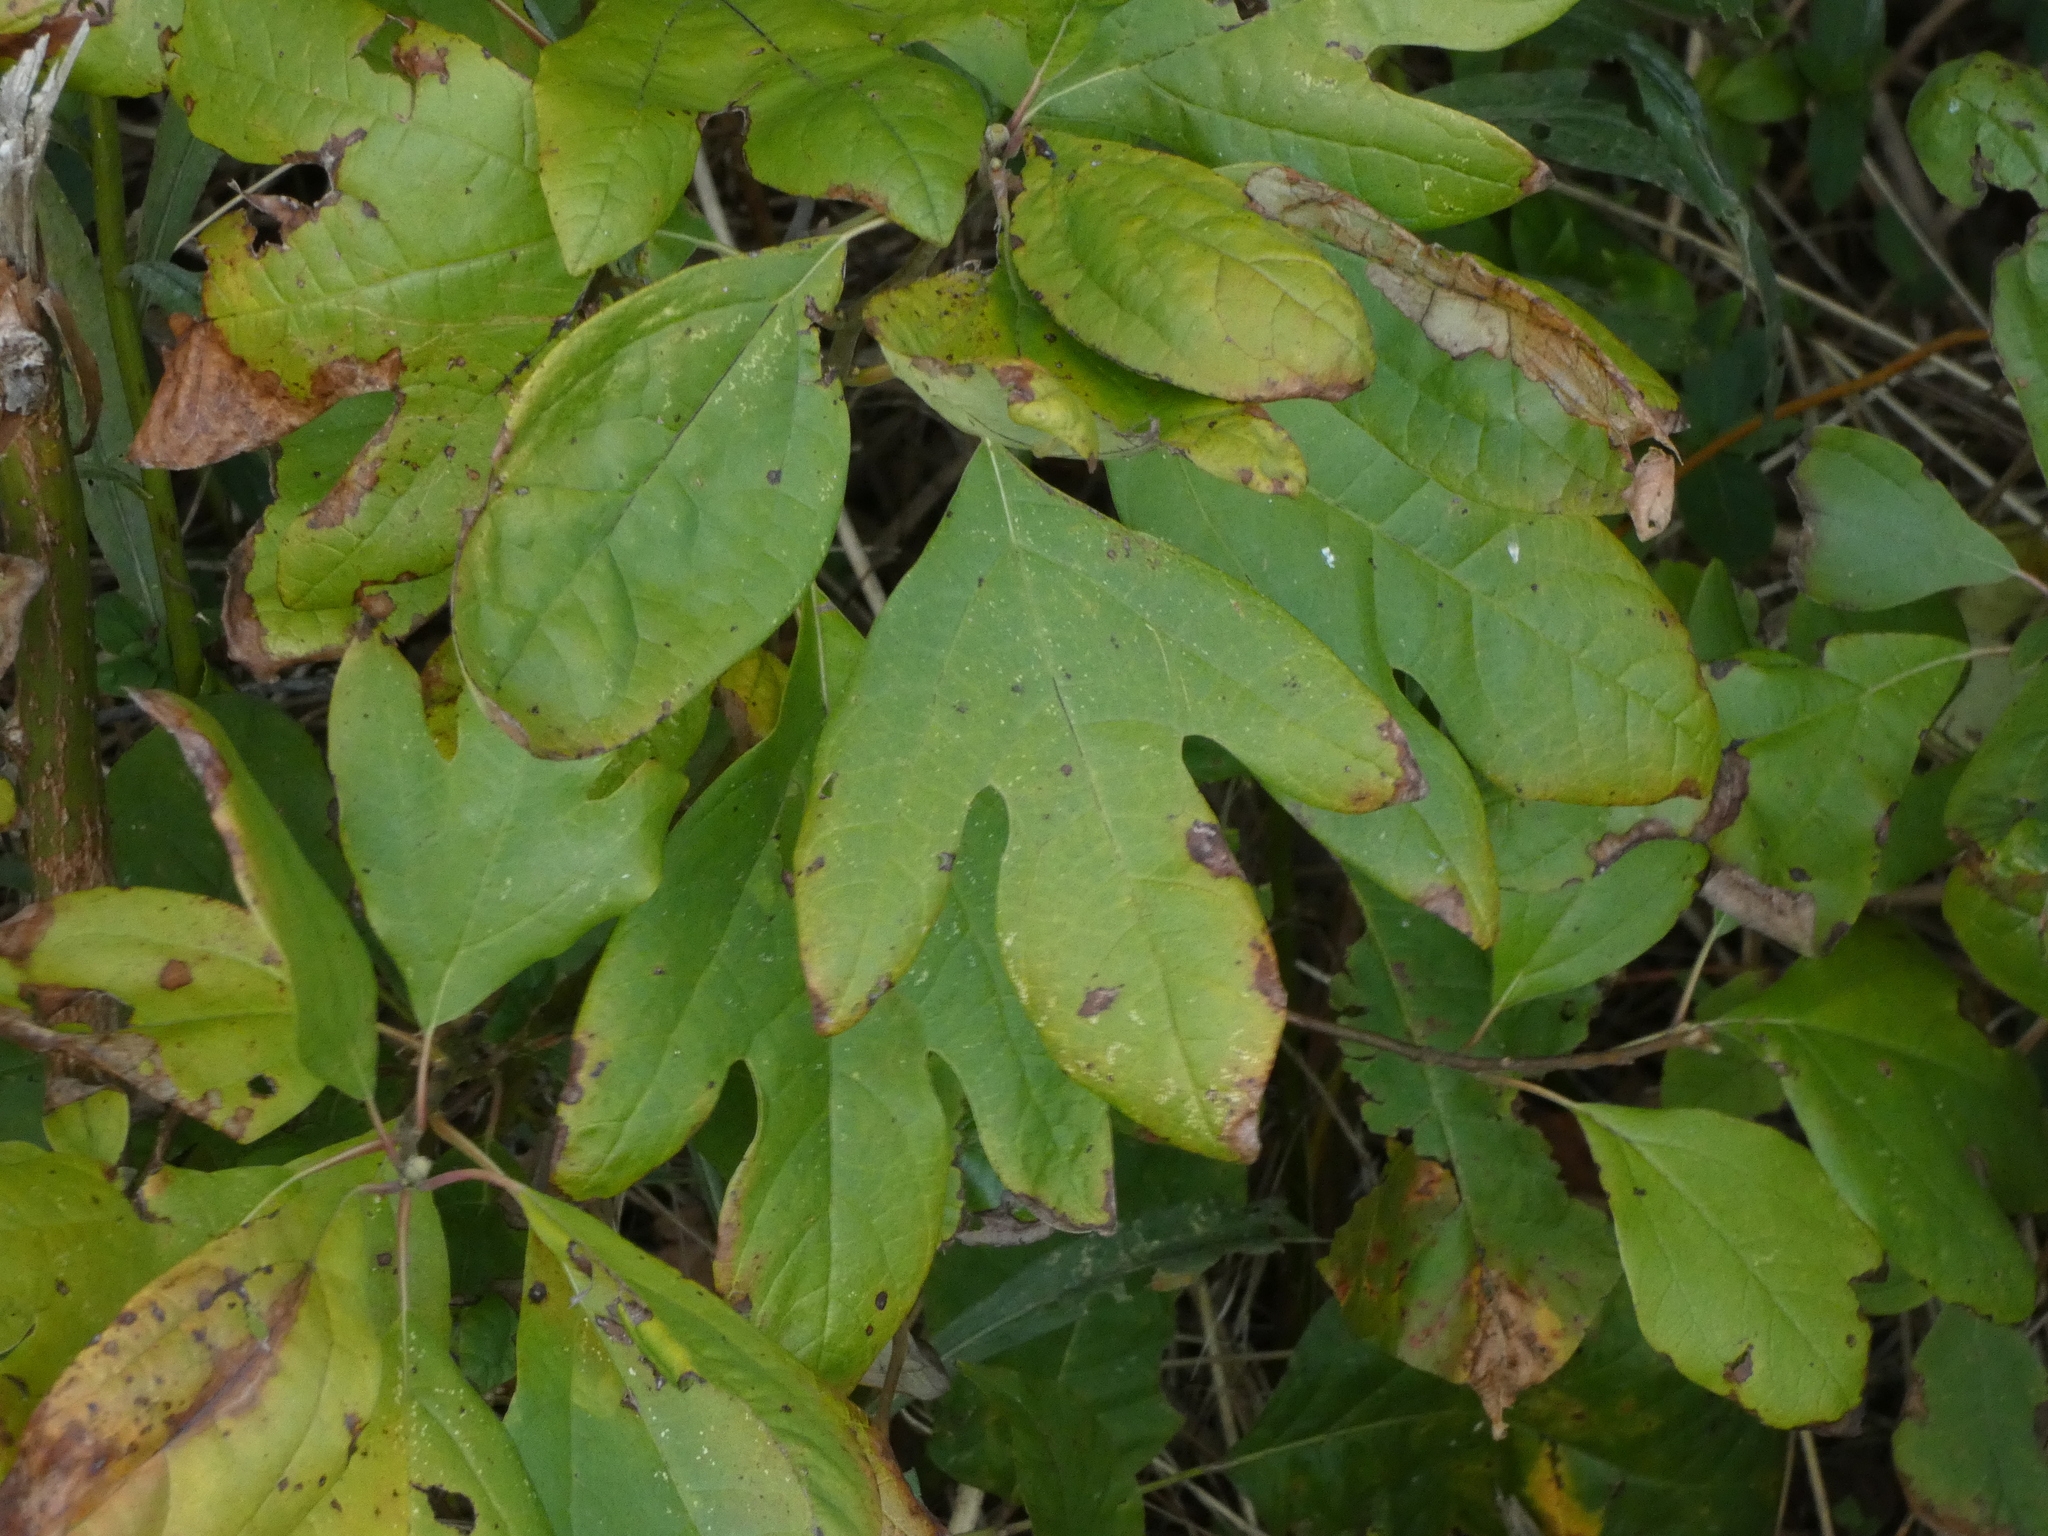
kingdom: Plantae
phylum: Tracheophyta
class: Magnoliopsida
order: Laurales
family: Lauraceae
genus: Sassafras
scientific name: Sassafras albidum
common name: Sassafras
